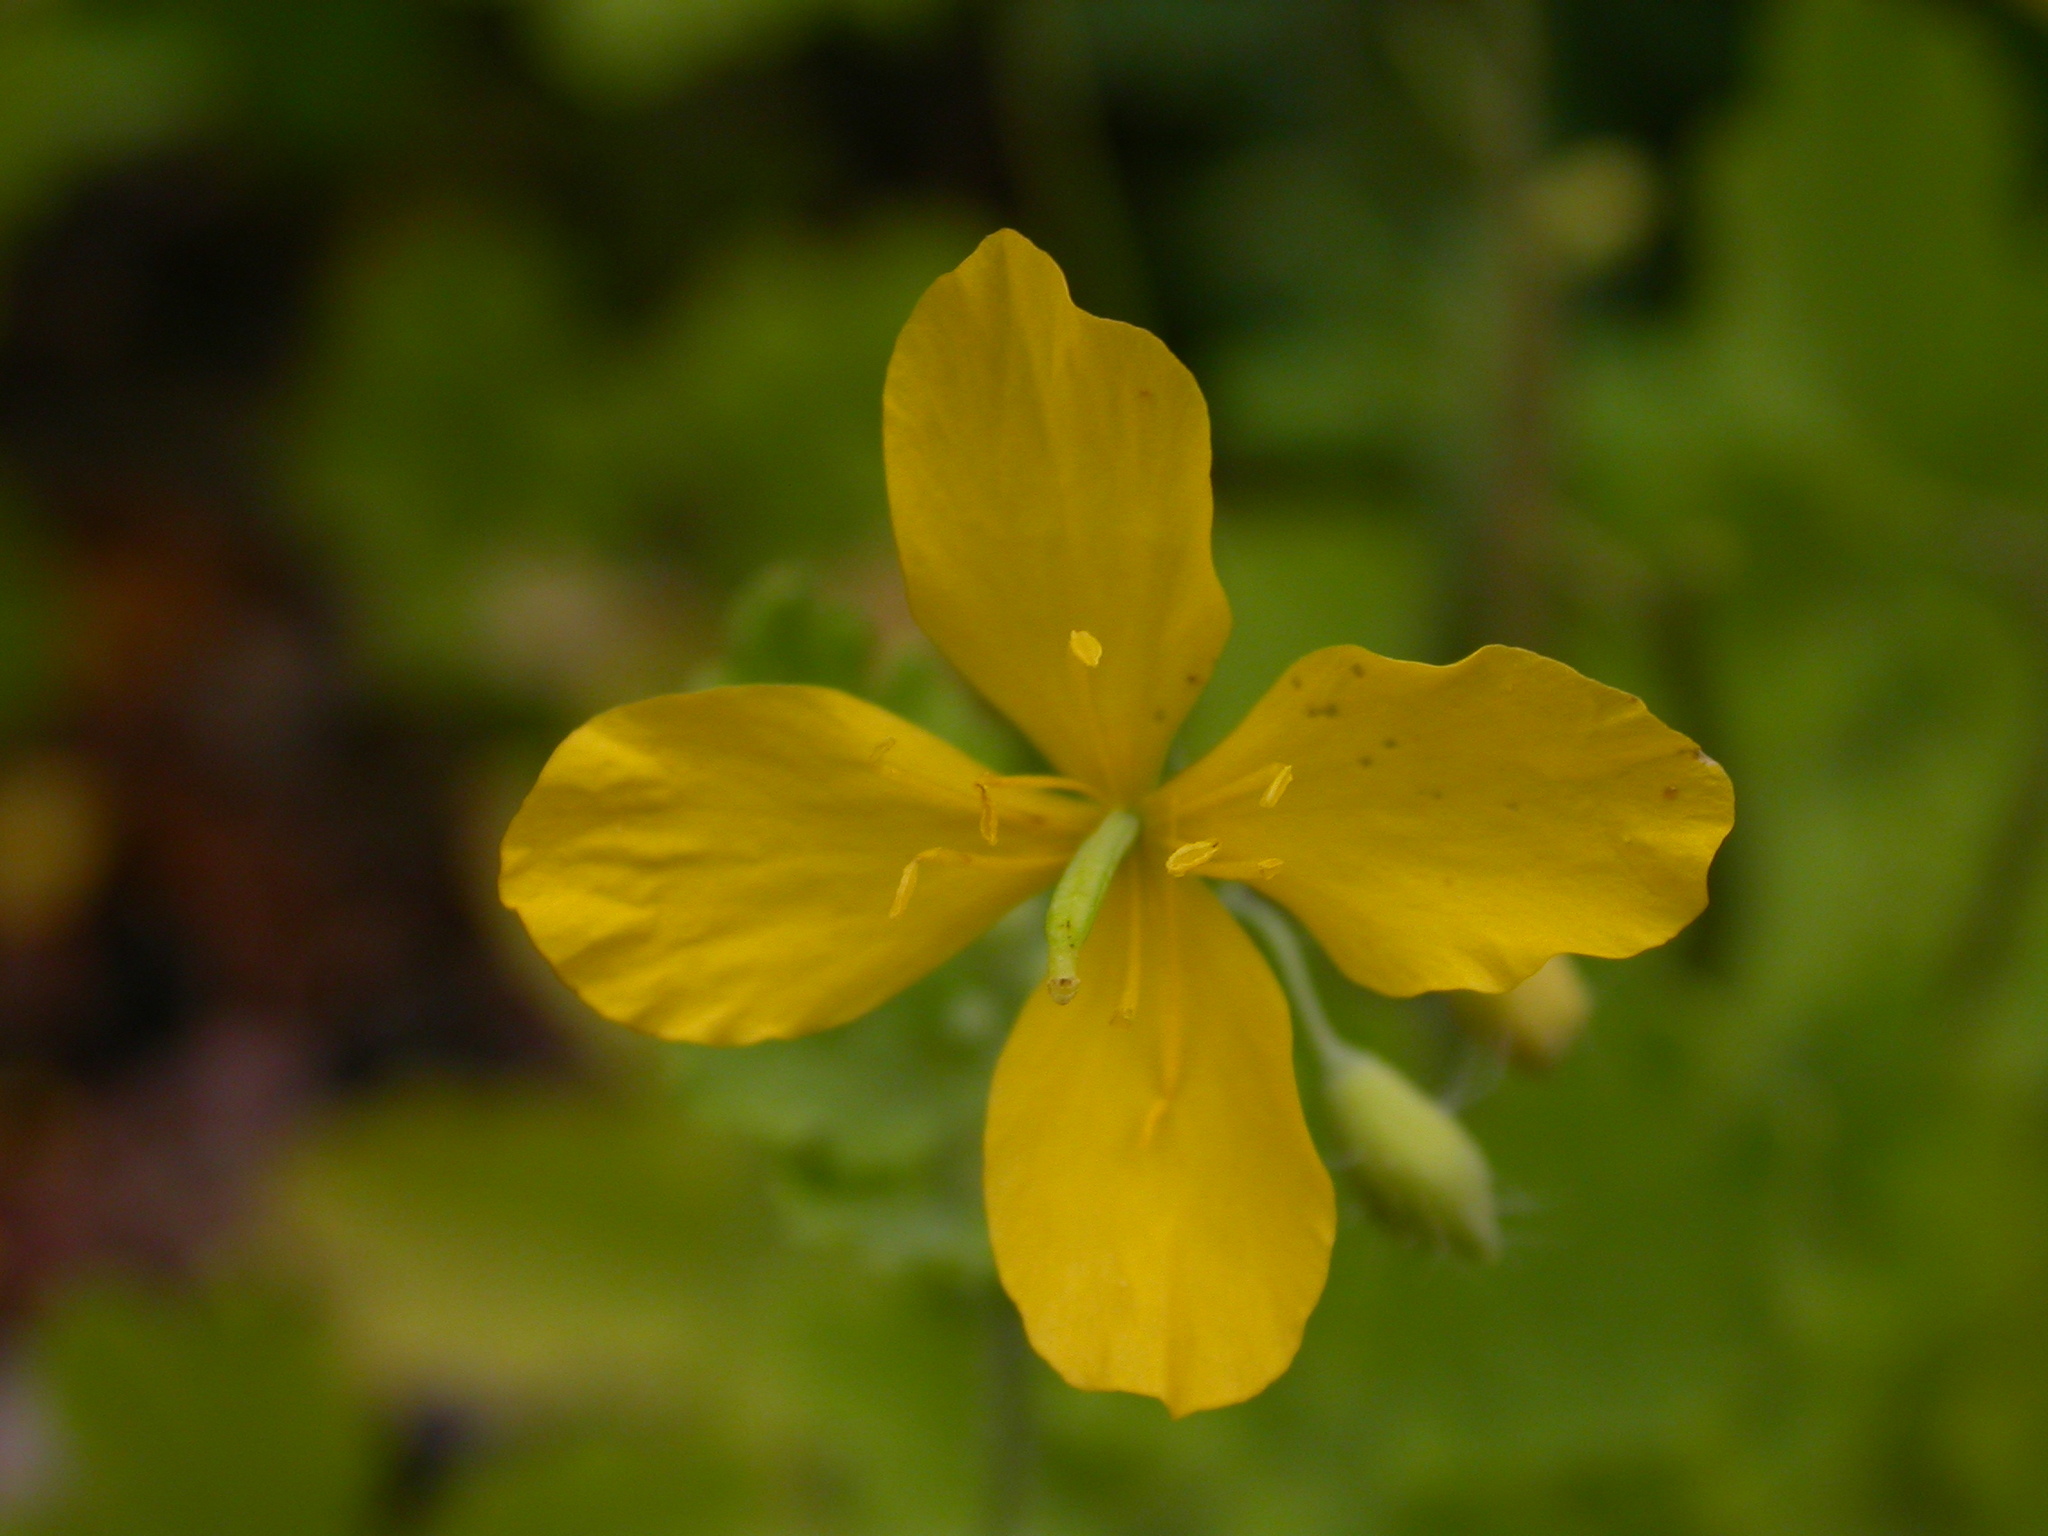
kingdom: Plantae
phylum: Tracheophyta
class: Magnoliopsida
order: Ranunculales
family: Papaveraceae
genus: Chelidonium
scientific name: Chelidonium majus
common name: Greater celandine
